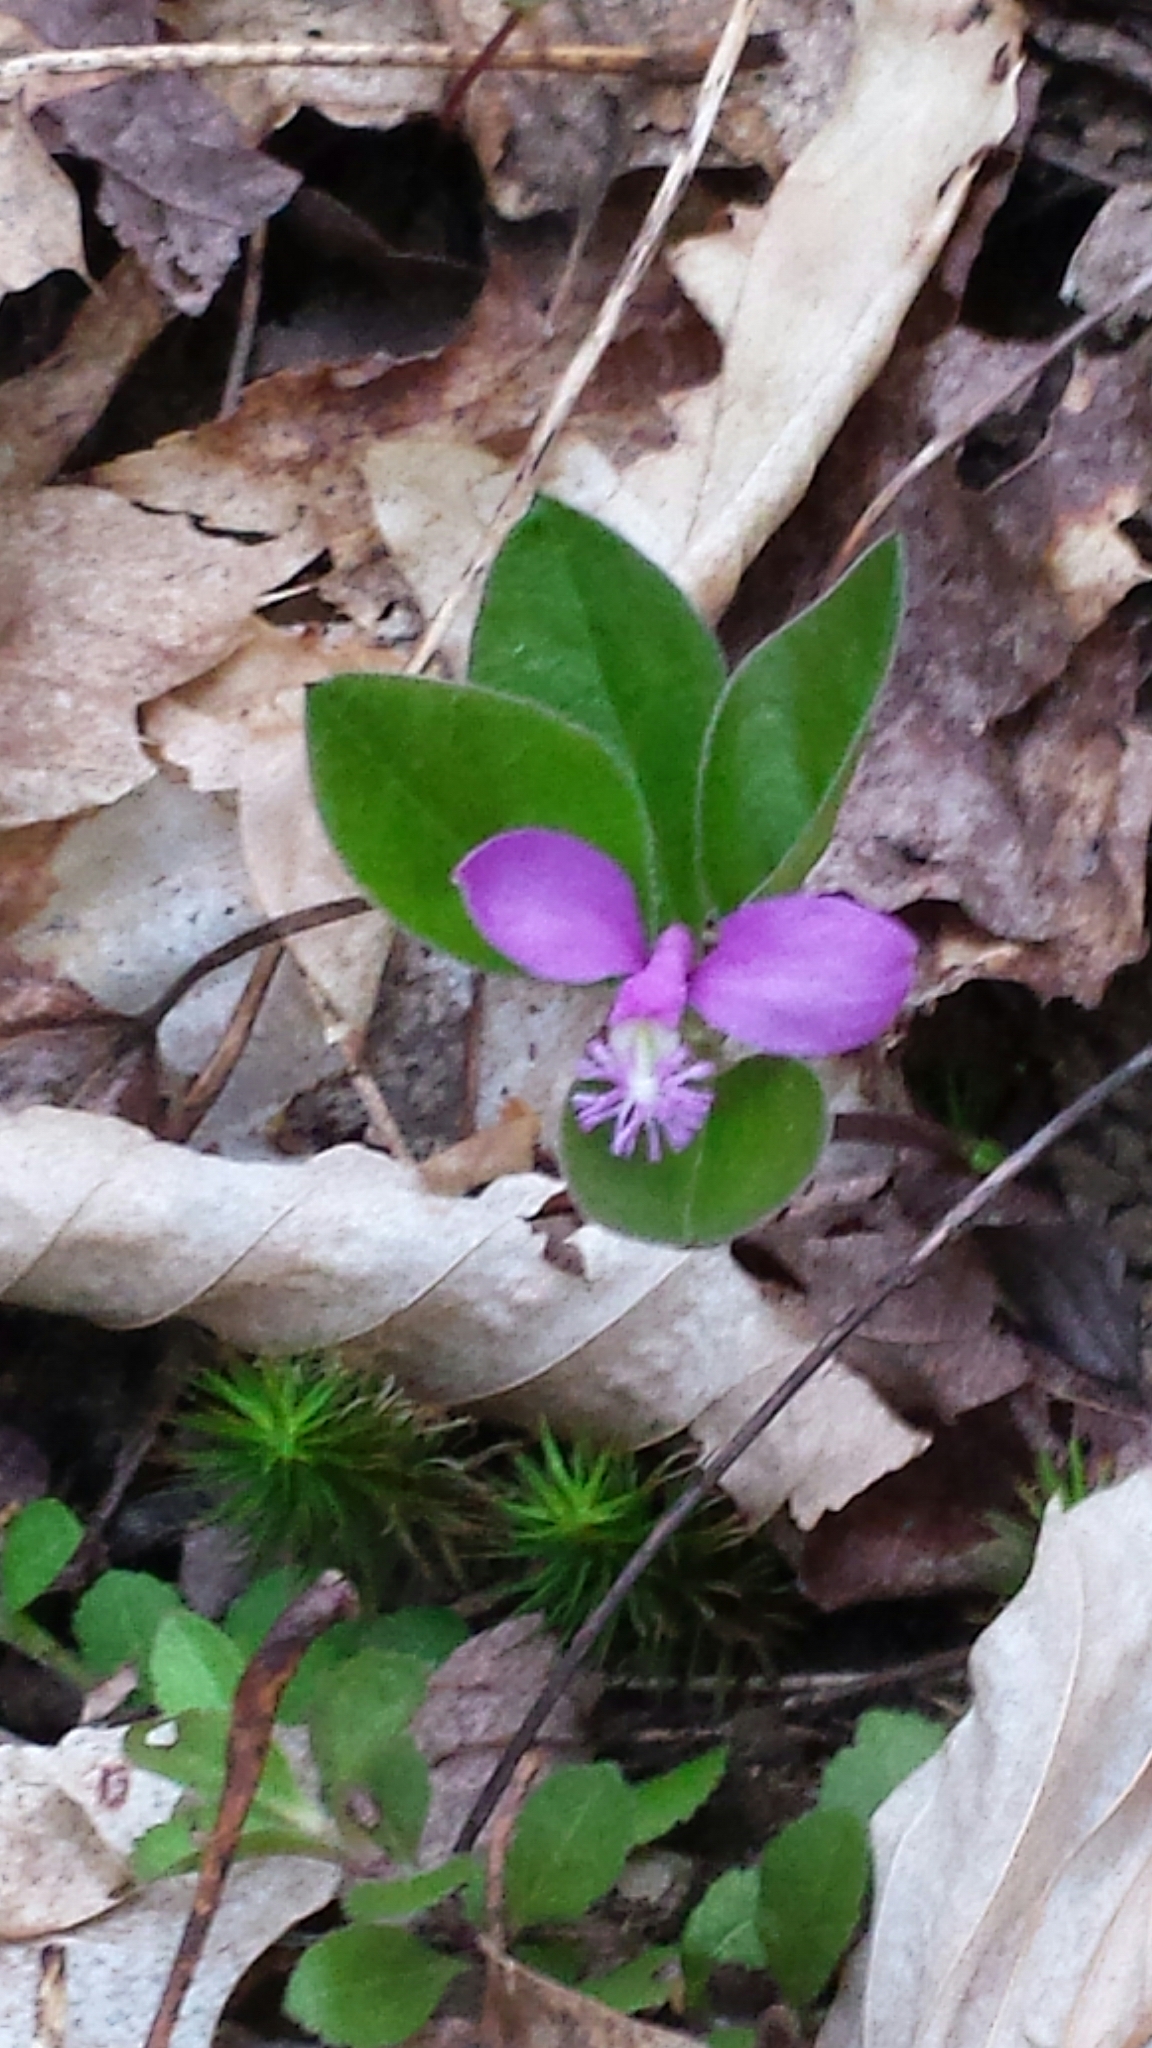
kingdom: Plantae
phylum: Tracheophyta
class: Magnoliopsida
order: Fabales
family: Polygalaceae
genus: Polygaloides
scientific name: Polygaloides paucifolia
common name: Bird-on-the-wing
